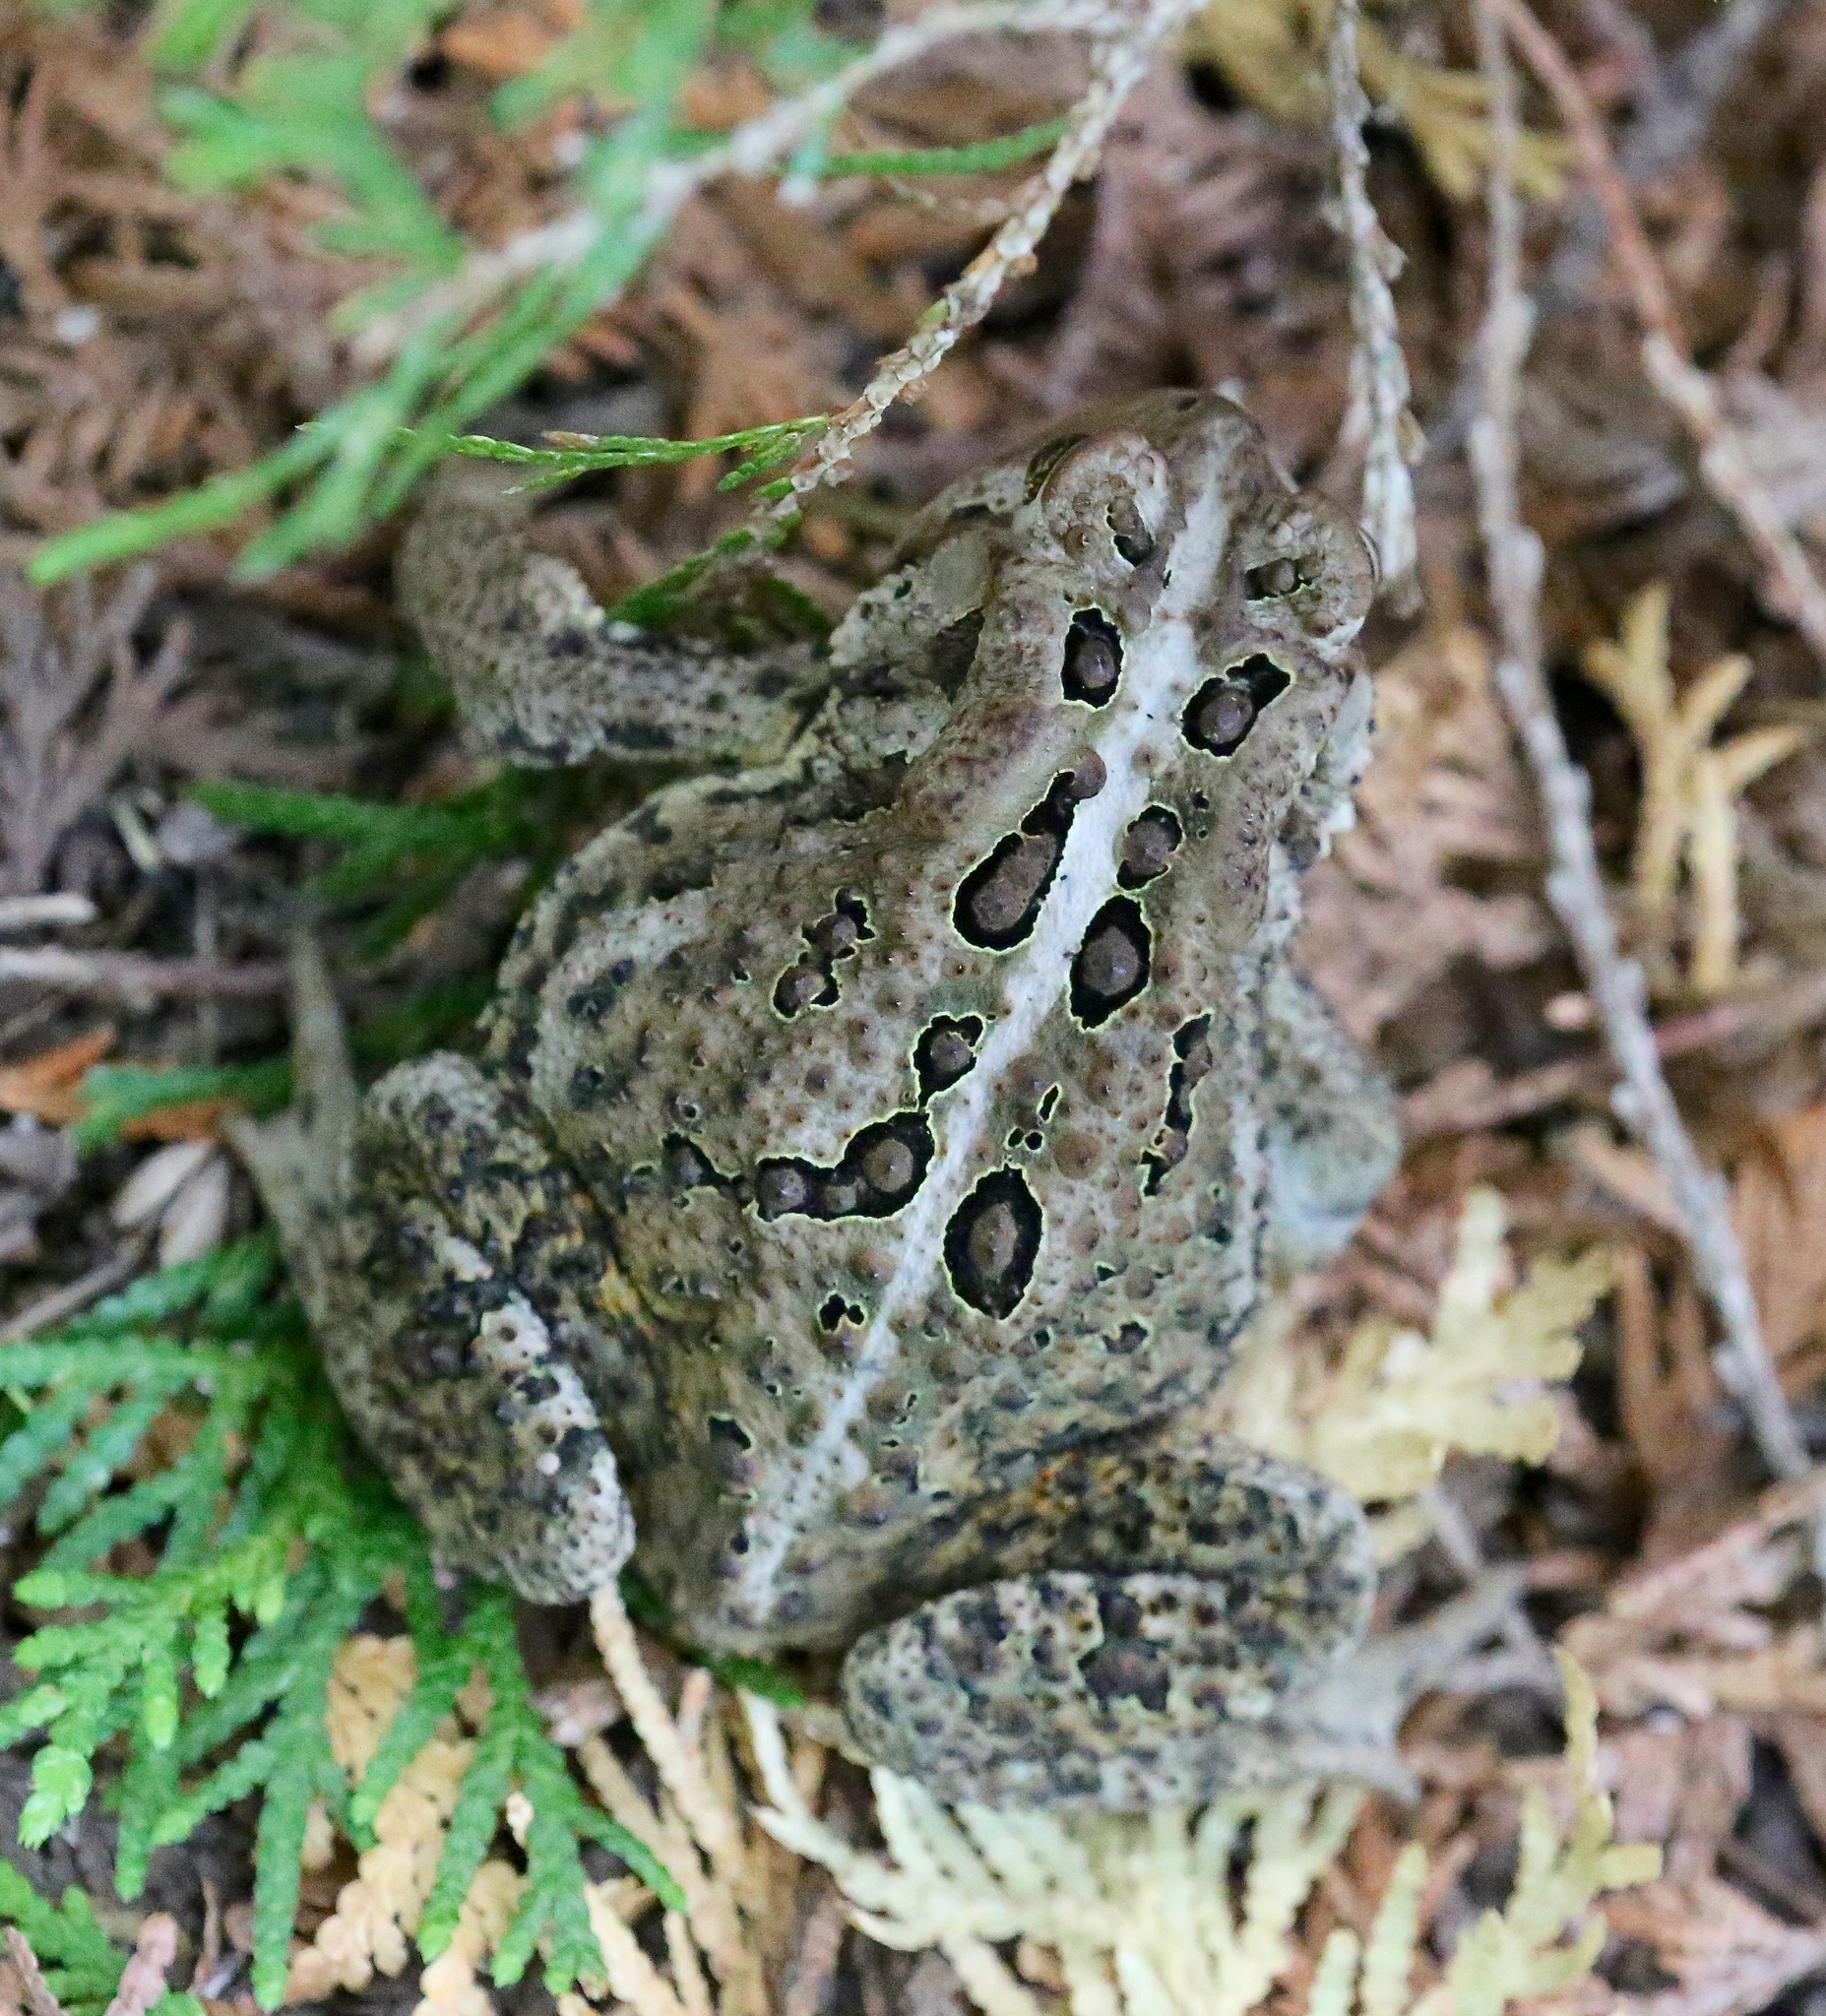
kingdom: Animalia
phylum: Chordata
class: Amphibia
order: Anura
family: Bufonidae
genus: Anaxyrus
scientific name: Anaxyrus americanus
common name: American toad
